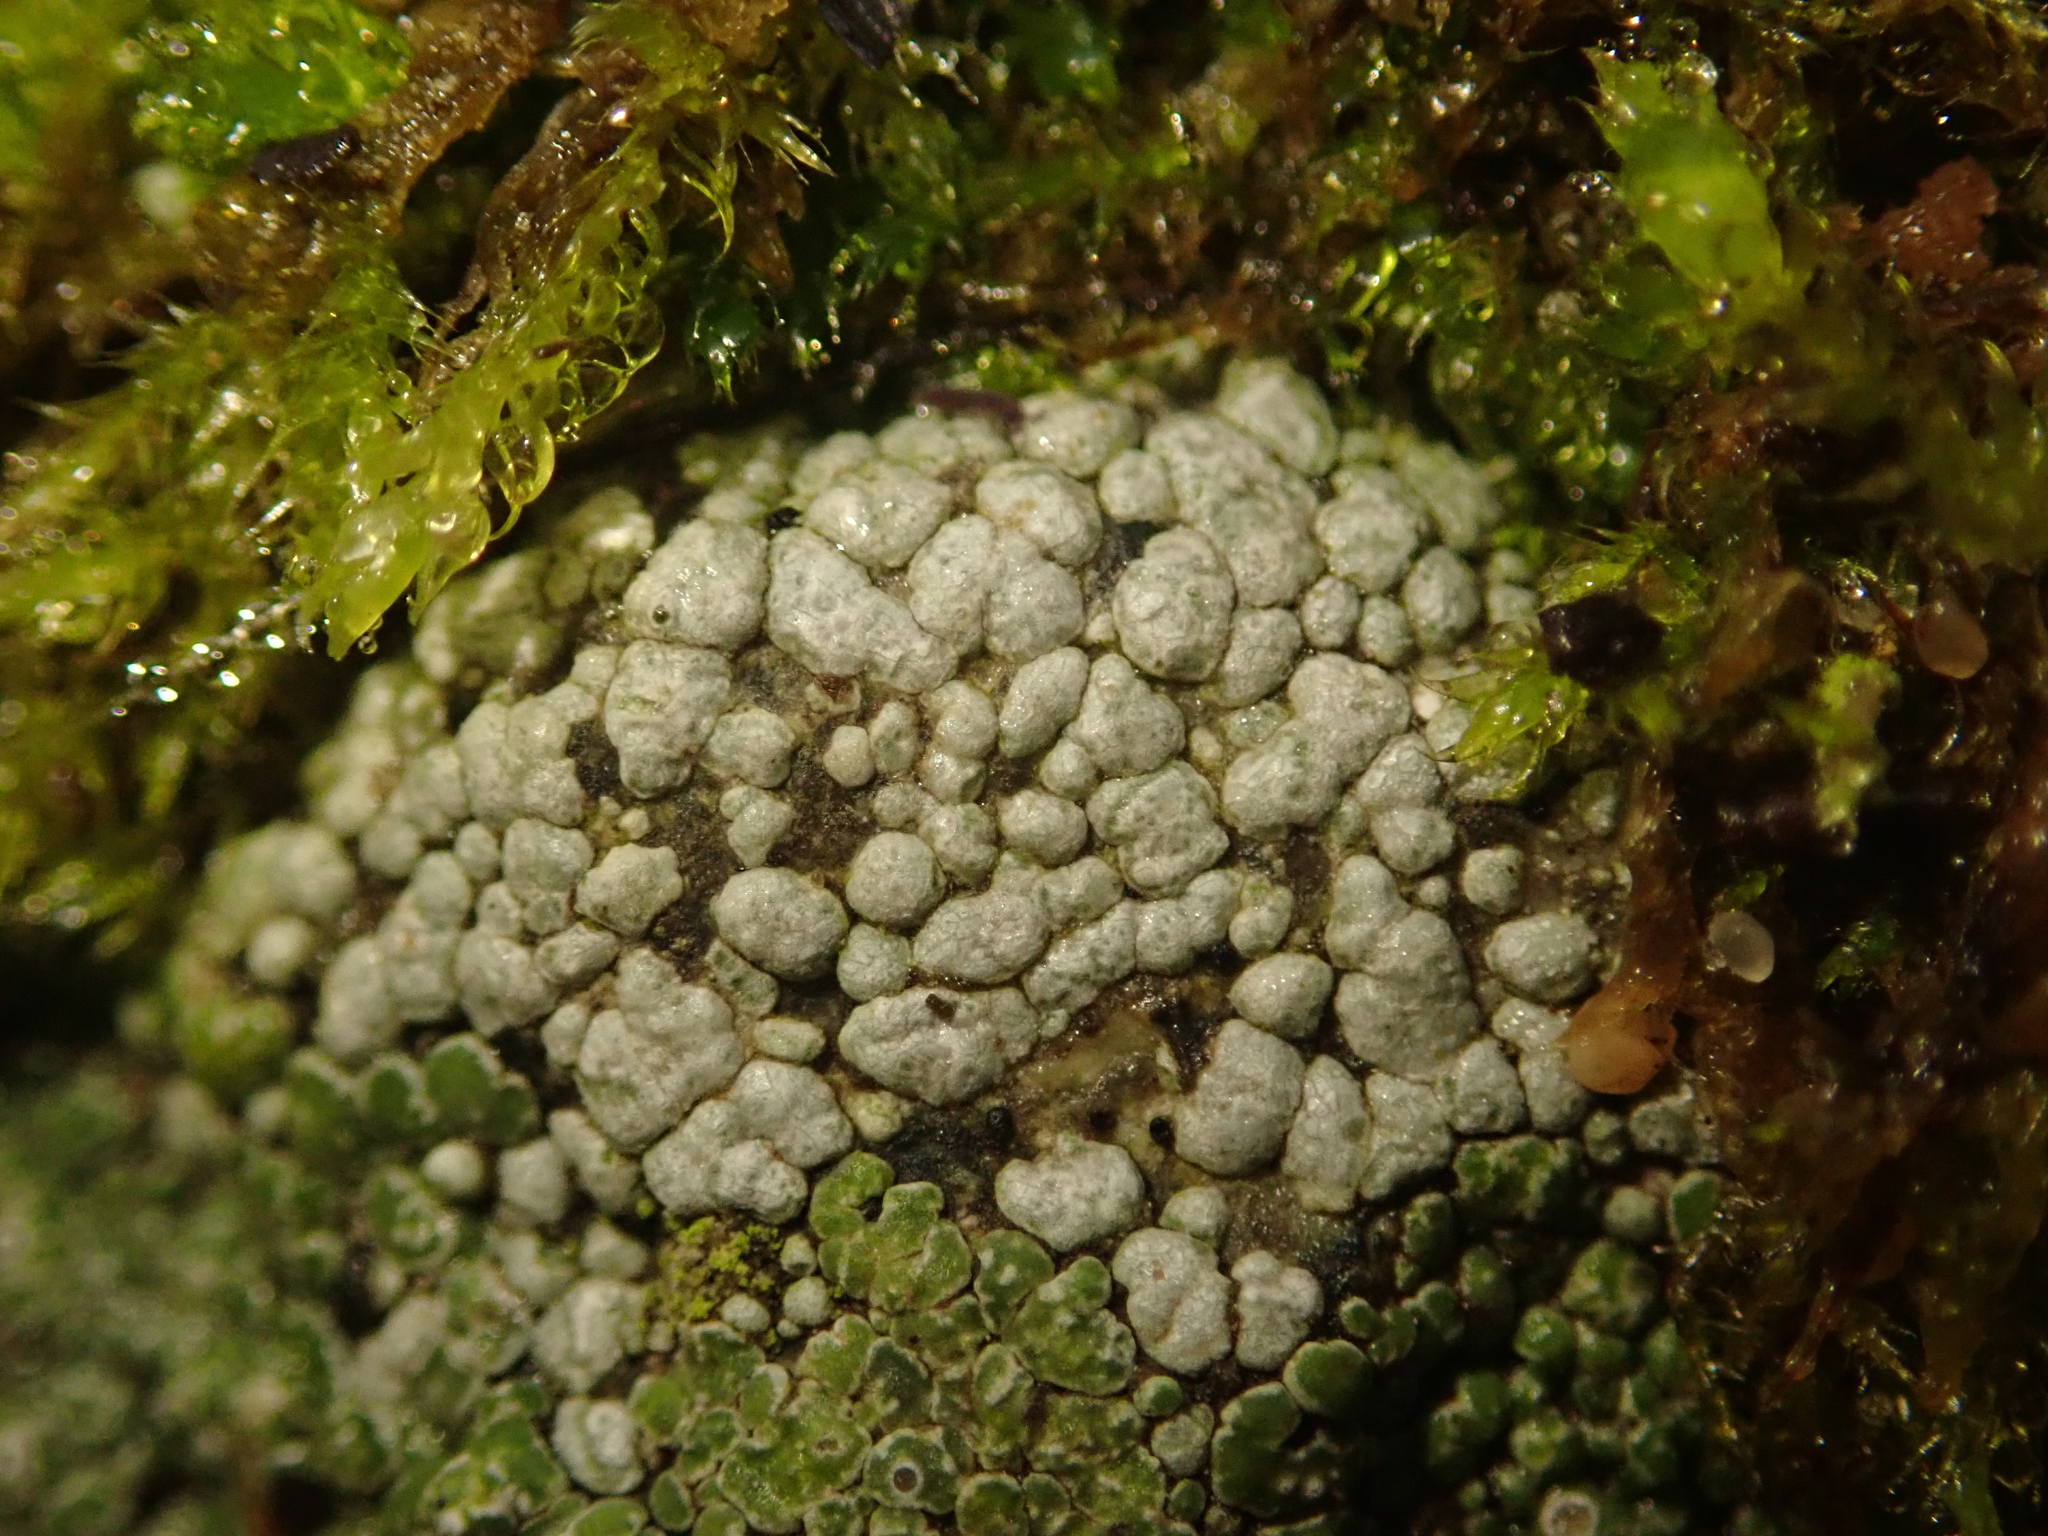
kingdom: Fungi
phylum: Ascomycota
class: Lecanoromycetes
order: Pertusariales
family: Megasporaceae
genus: Circinaria
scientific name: Circinaria contorta
